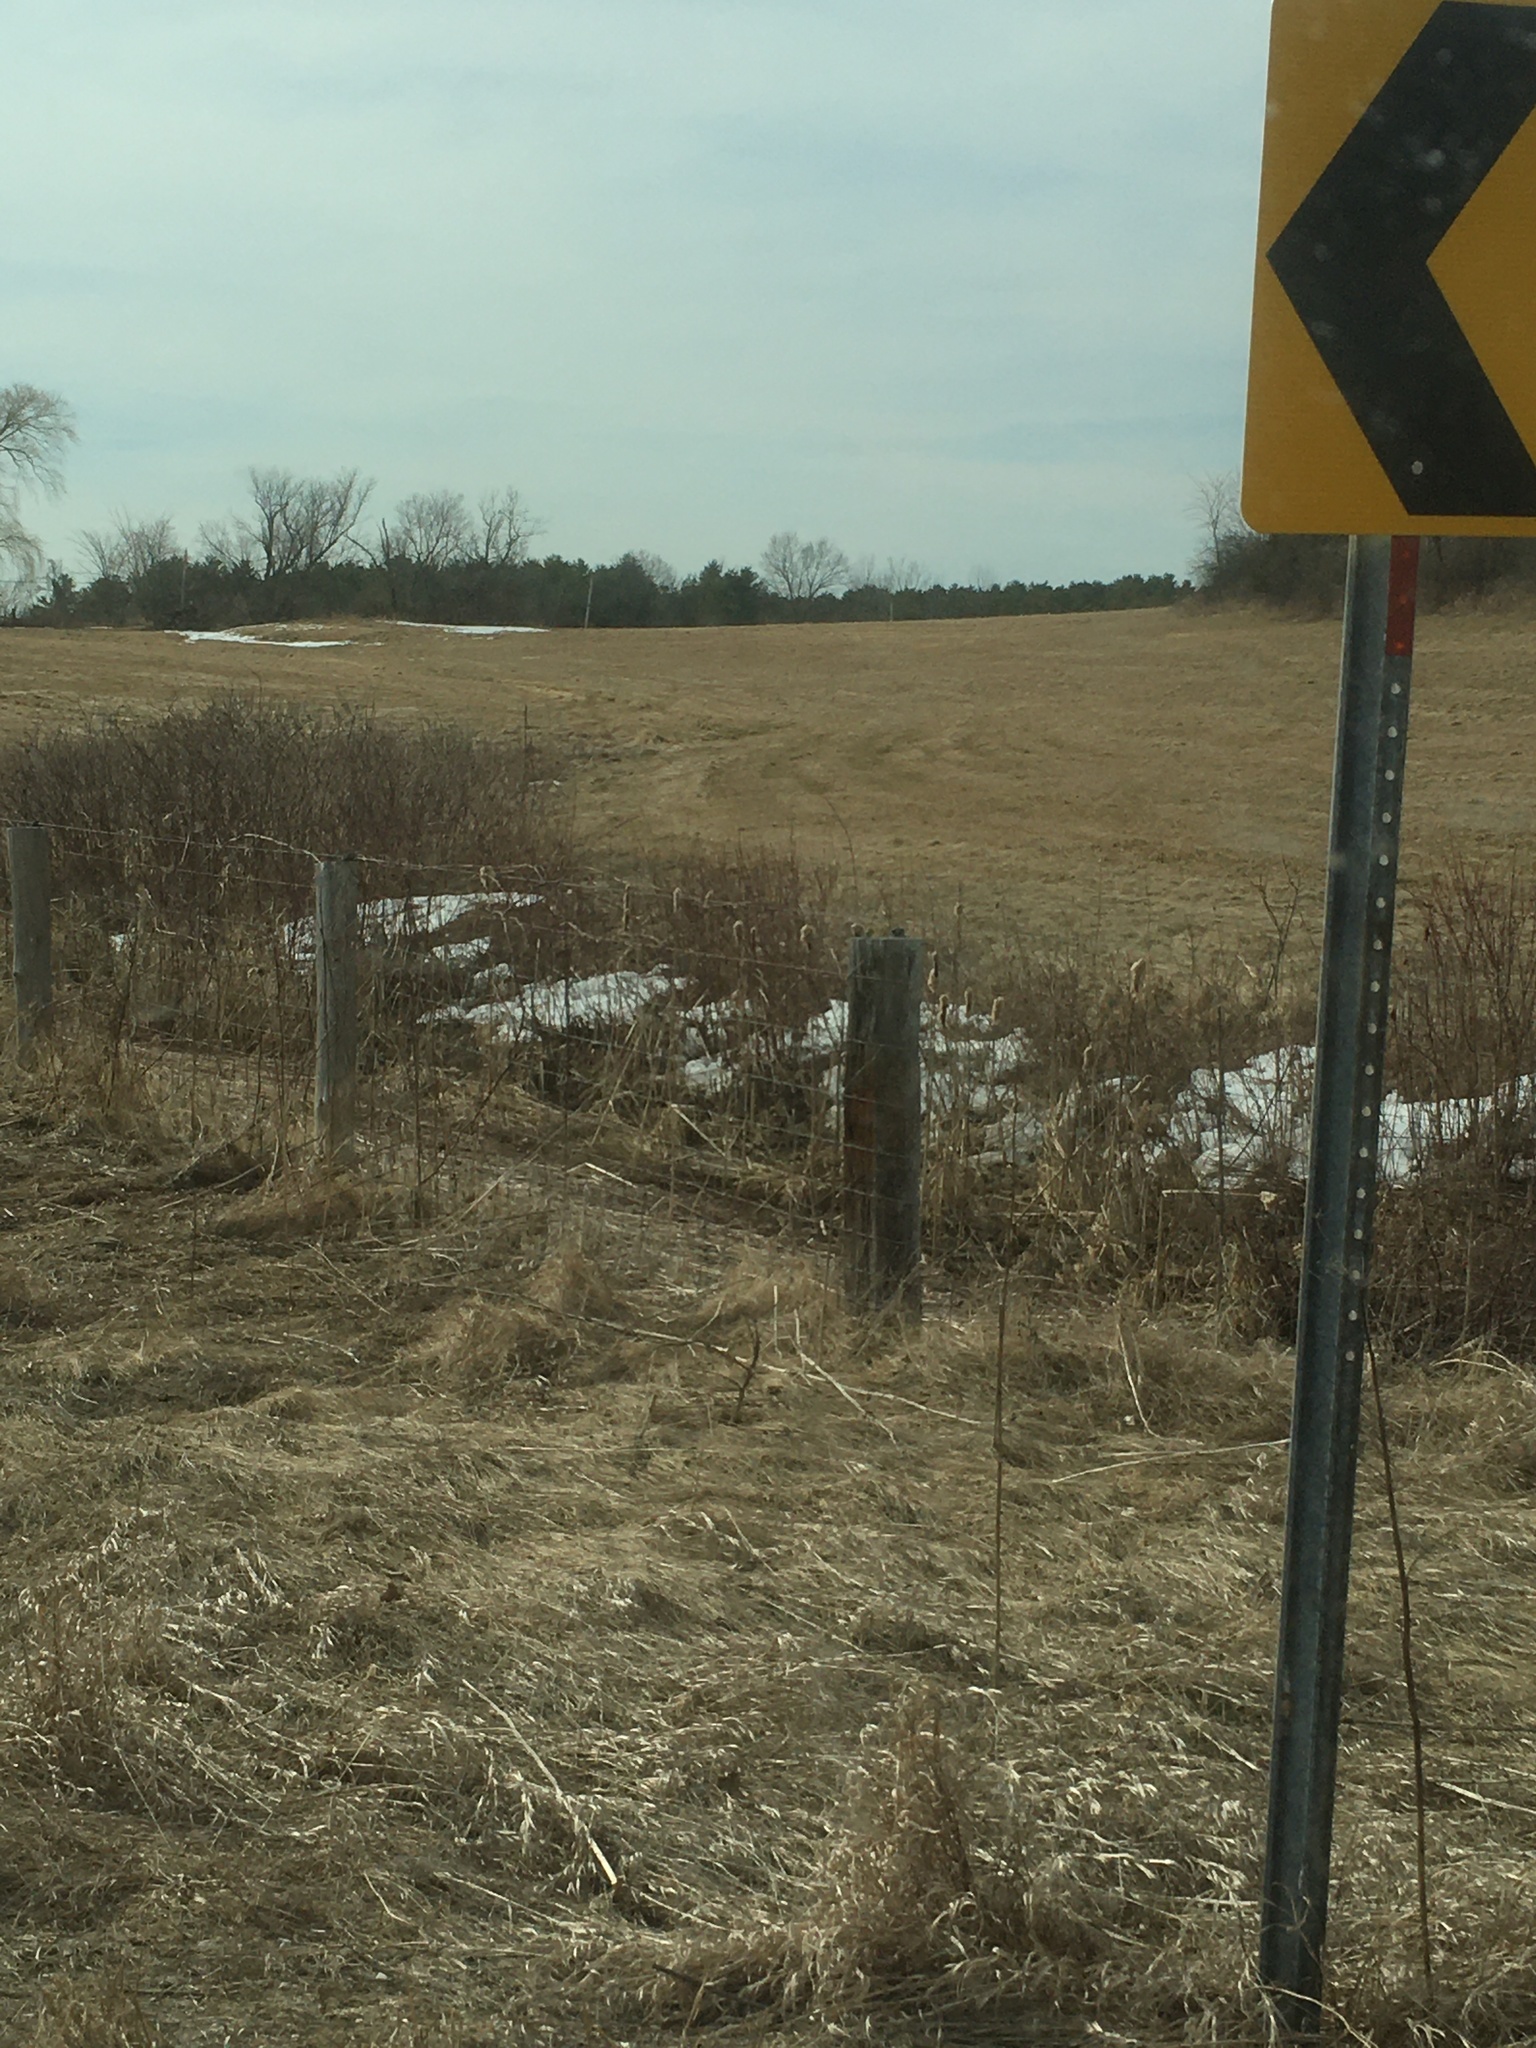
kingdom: Plantae
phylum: Tracheophyta
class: Liliopsida
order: Poales
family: Typhaceae
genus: Typha
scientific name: Typha latifolia
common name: Broadleaf cattail
